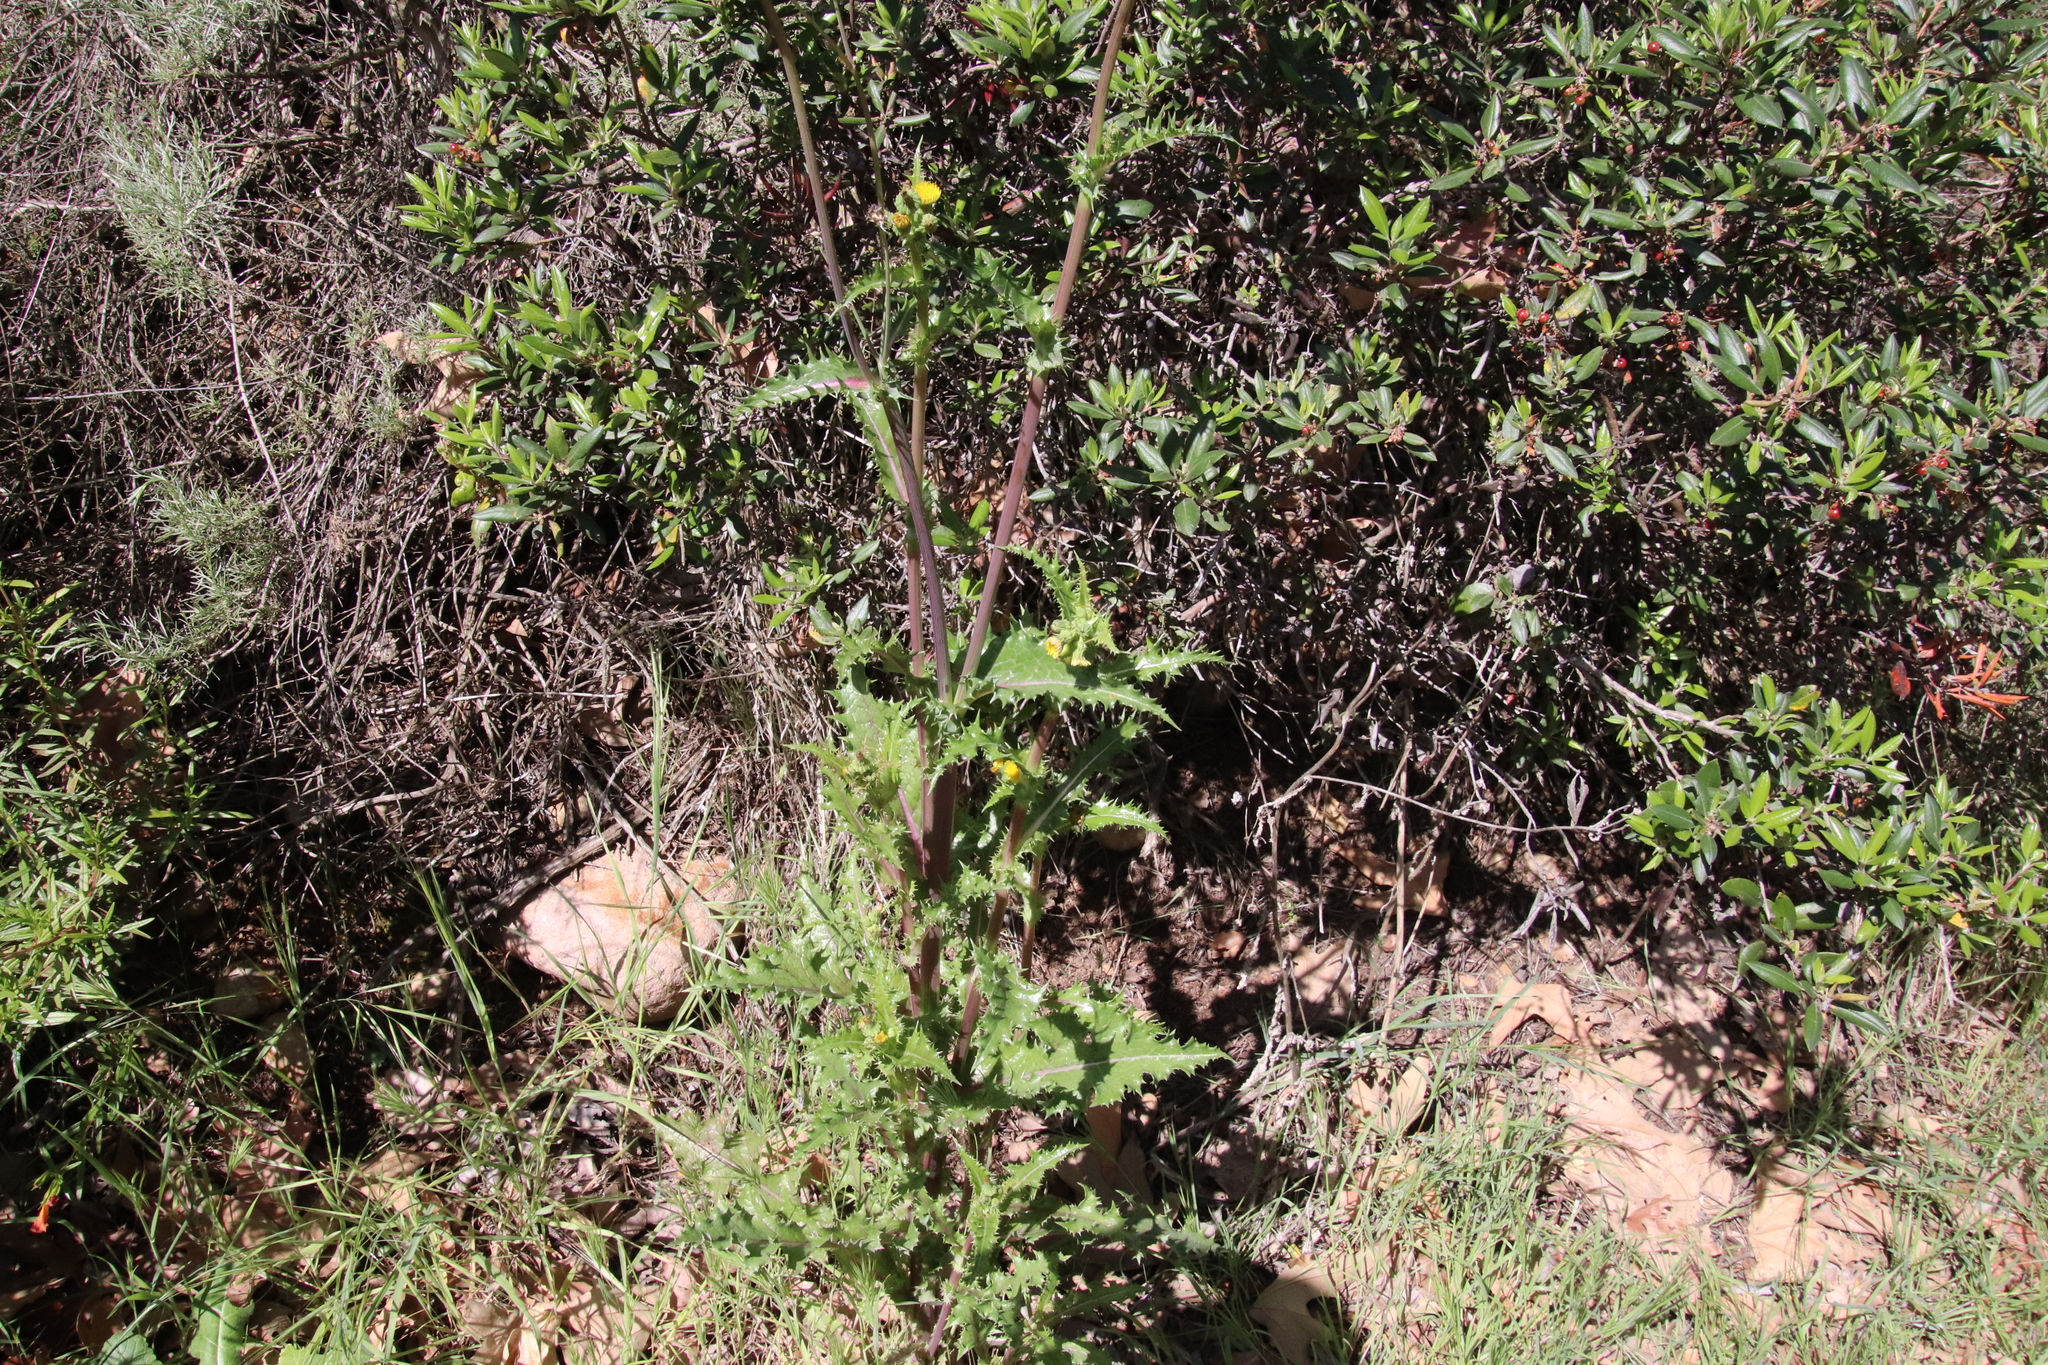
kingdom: Plantae
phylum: Tracheophyta
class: Magnoliopsida
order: Asterales
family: Asteraceae
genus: Sonchus
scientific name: Sonchus asper
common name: Prickly sow-thistle
